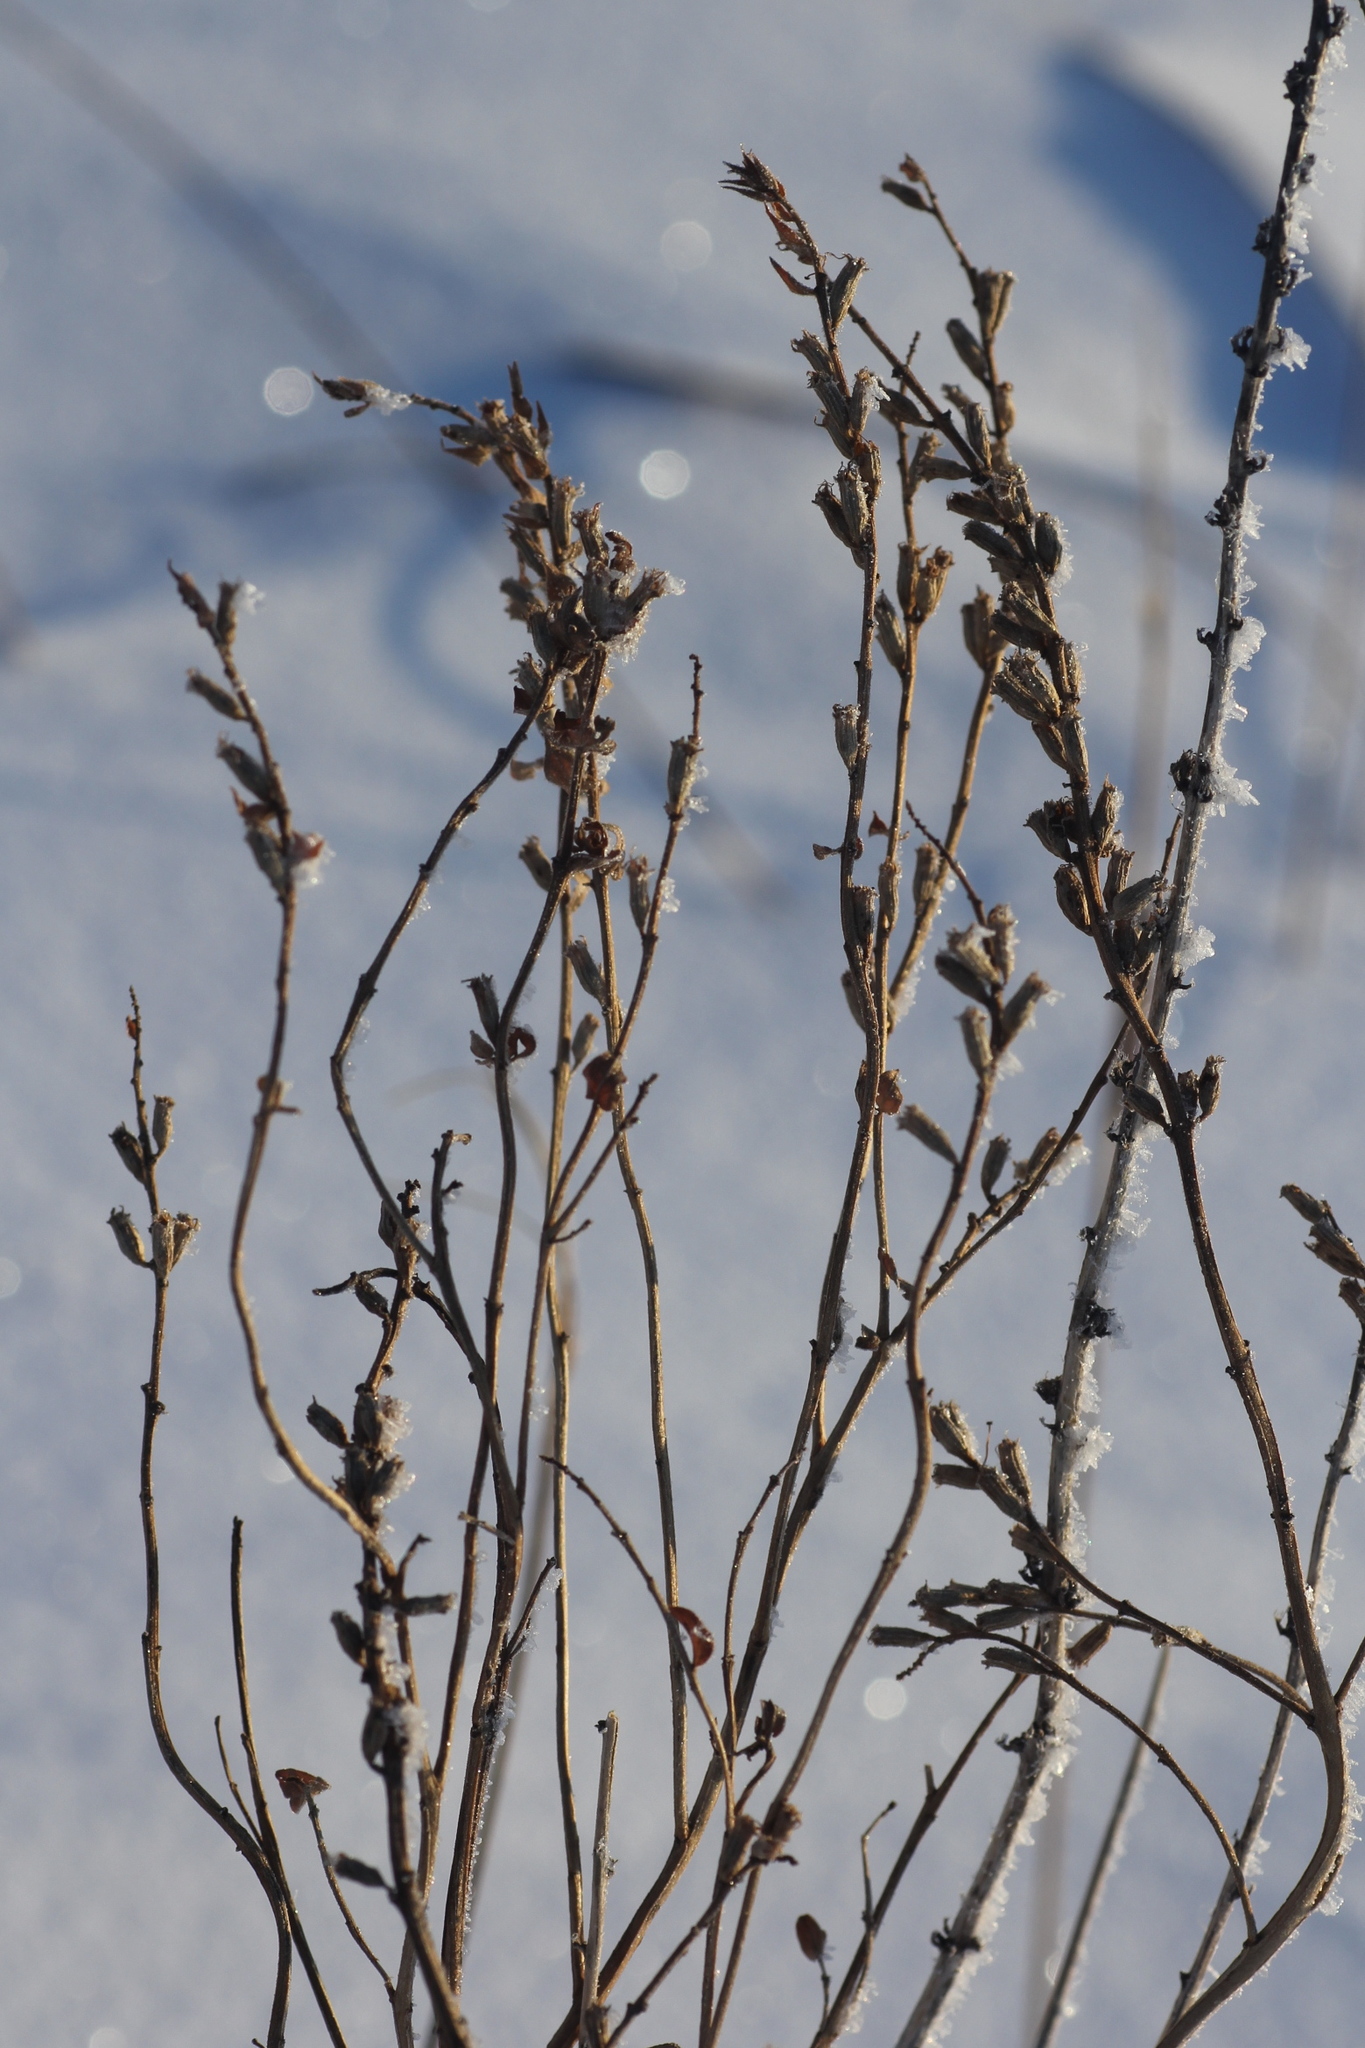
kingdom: Plantae
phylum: Tracheophyta
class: Magnoliopsida
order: Lamiales
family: Orobanchaceae
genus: Odontites
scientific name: Odontites vulgaris
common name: Broomrape
